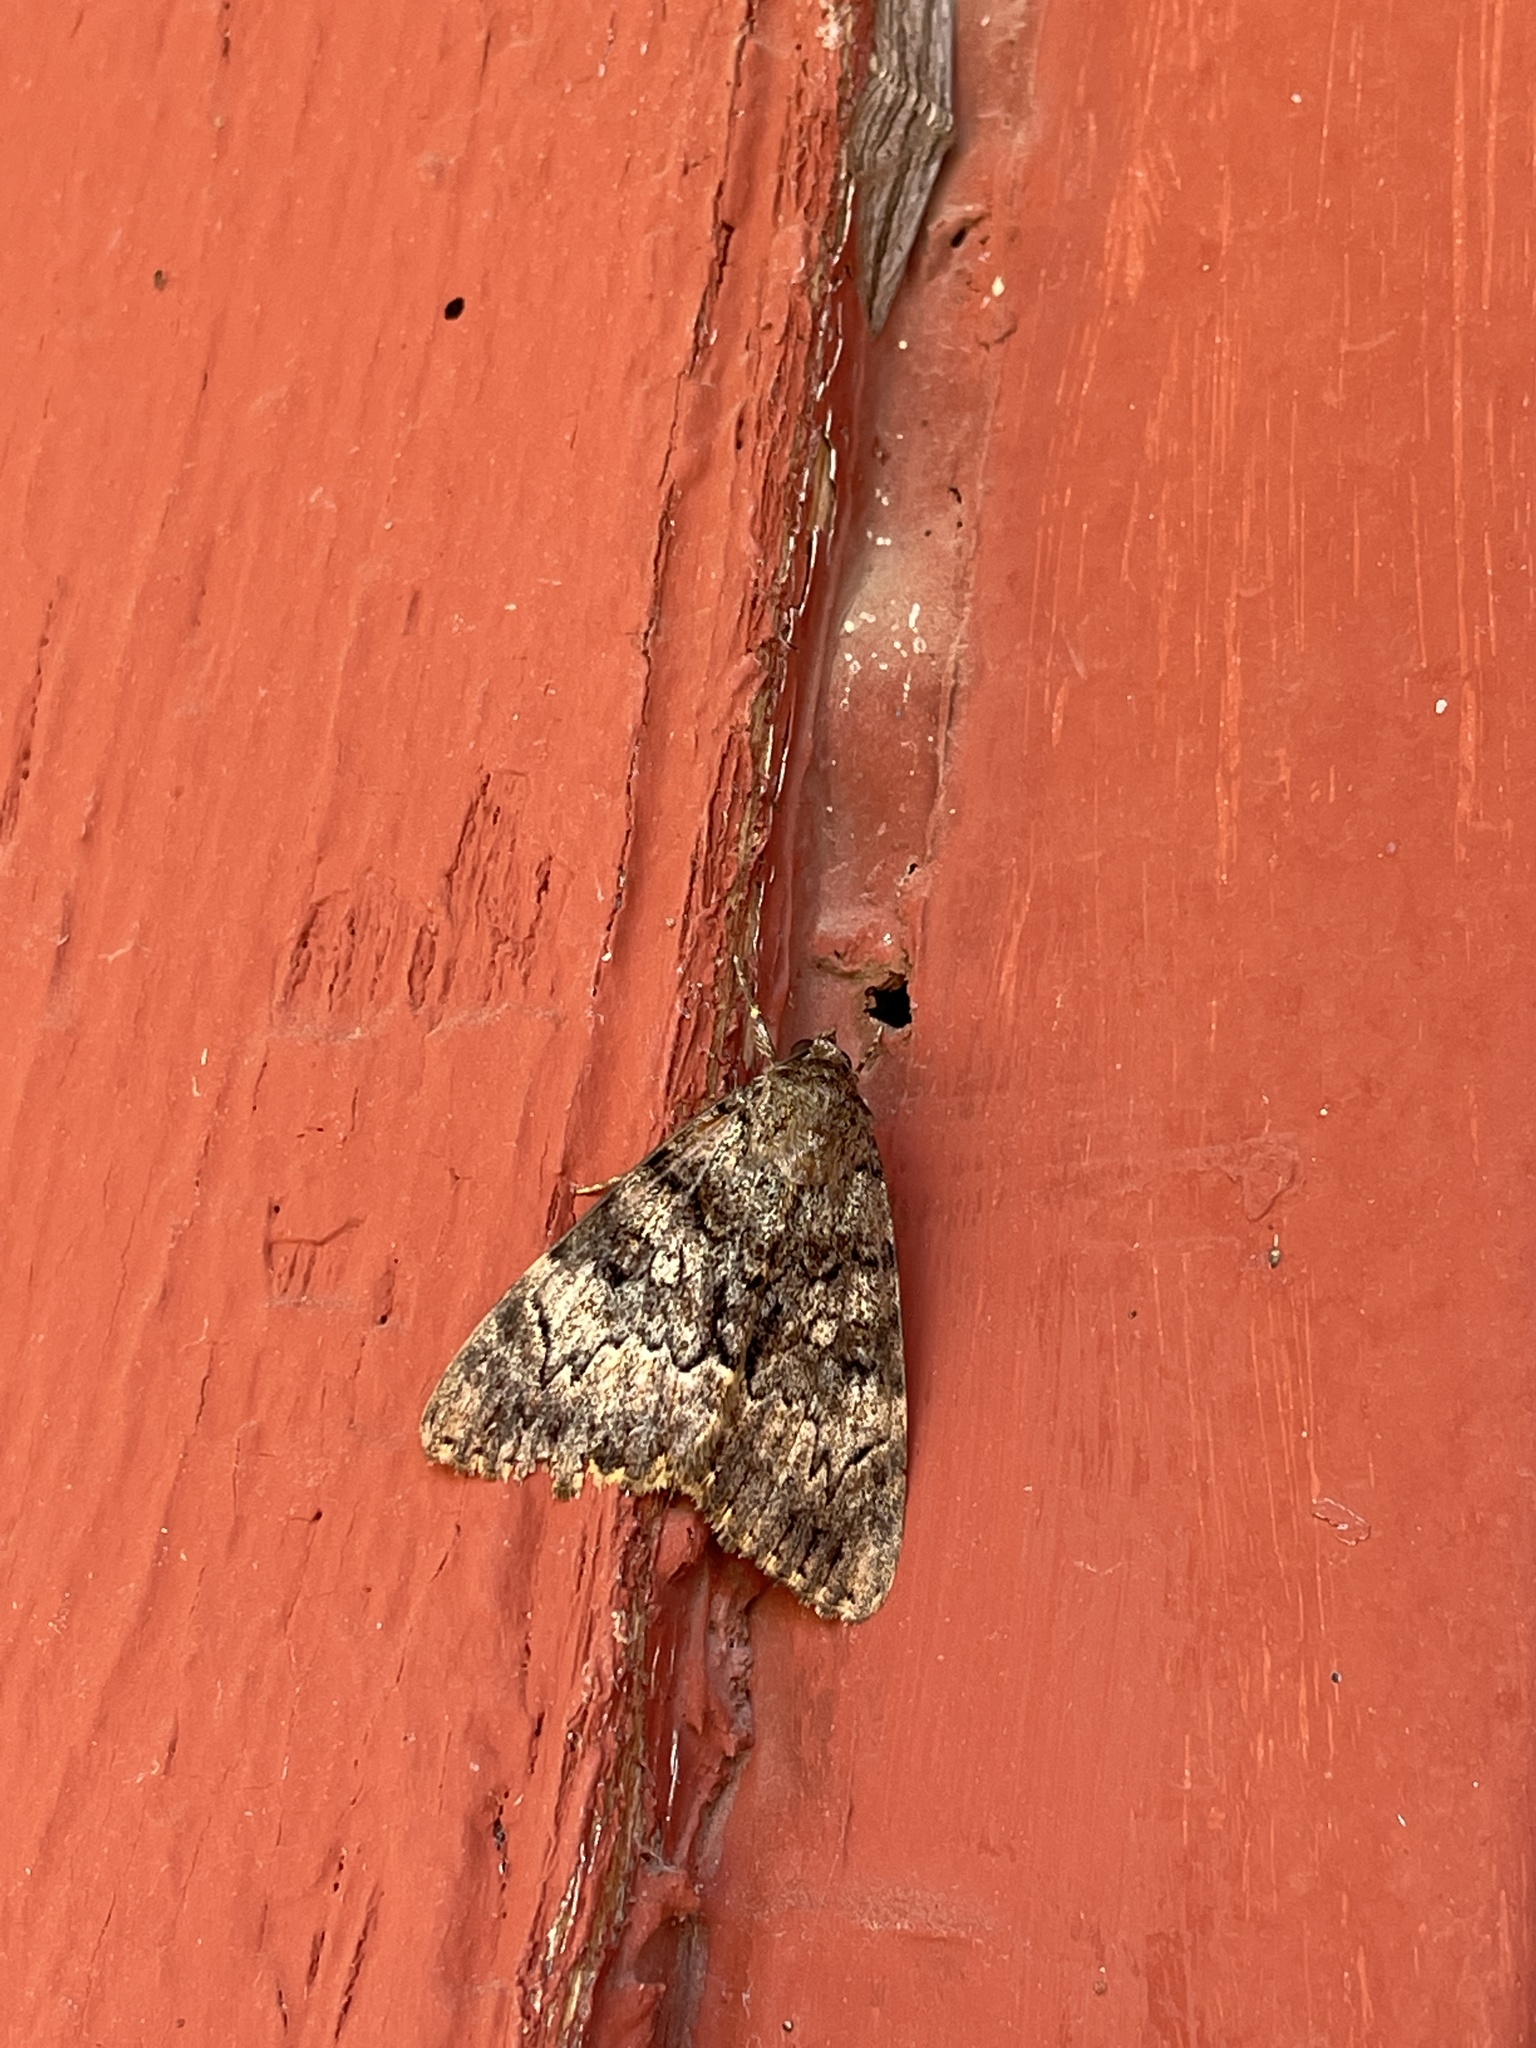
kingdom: Animalia
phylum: Arthropoda
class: Insecta
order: Lepidoptera
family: Erebidae
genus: Catocala
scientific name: Catocala benjamini
